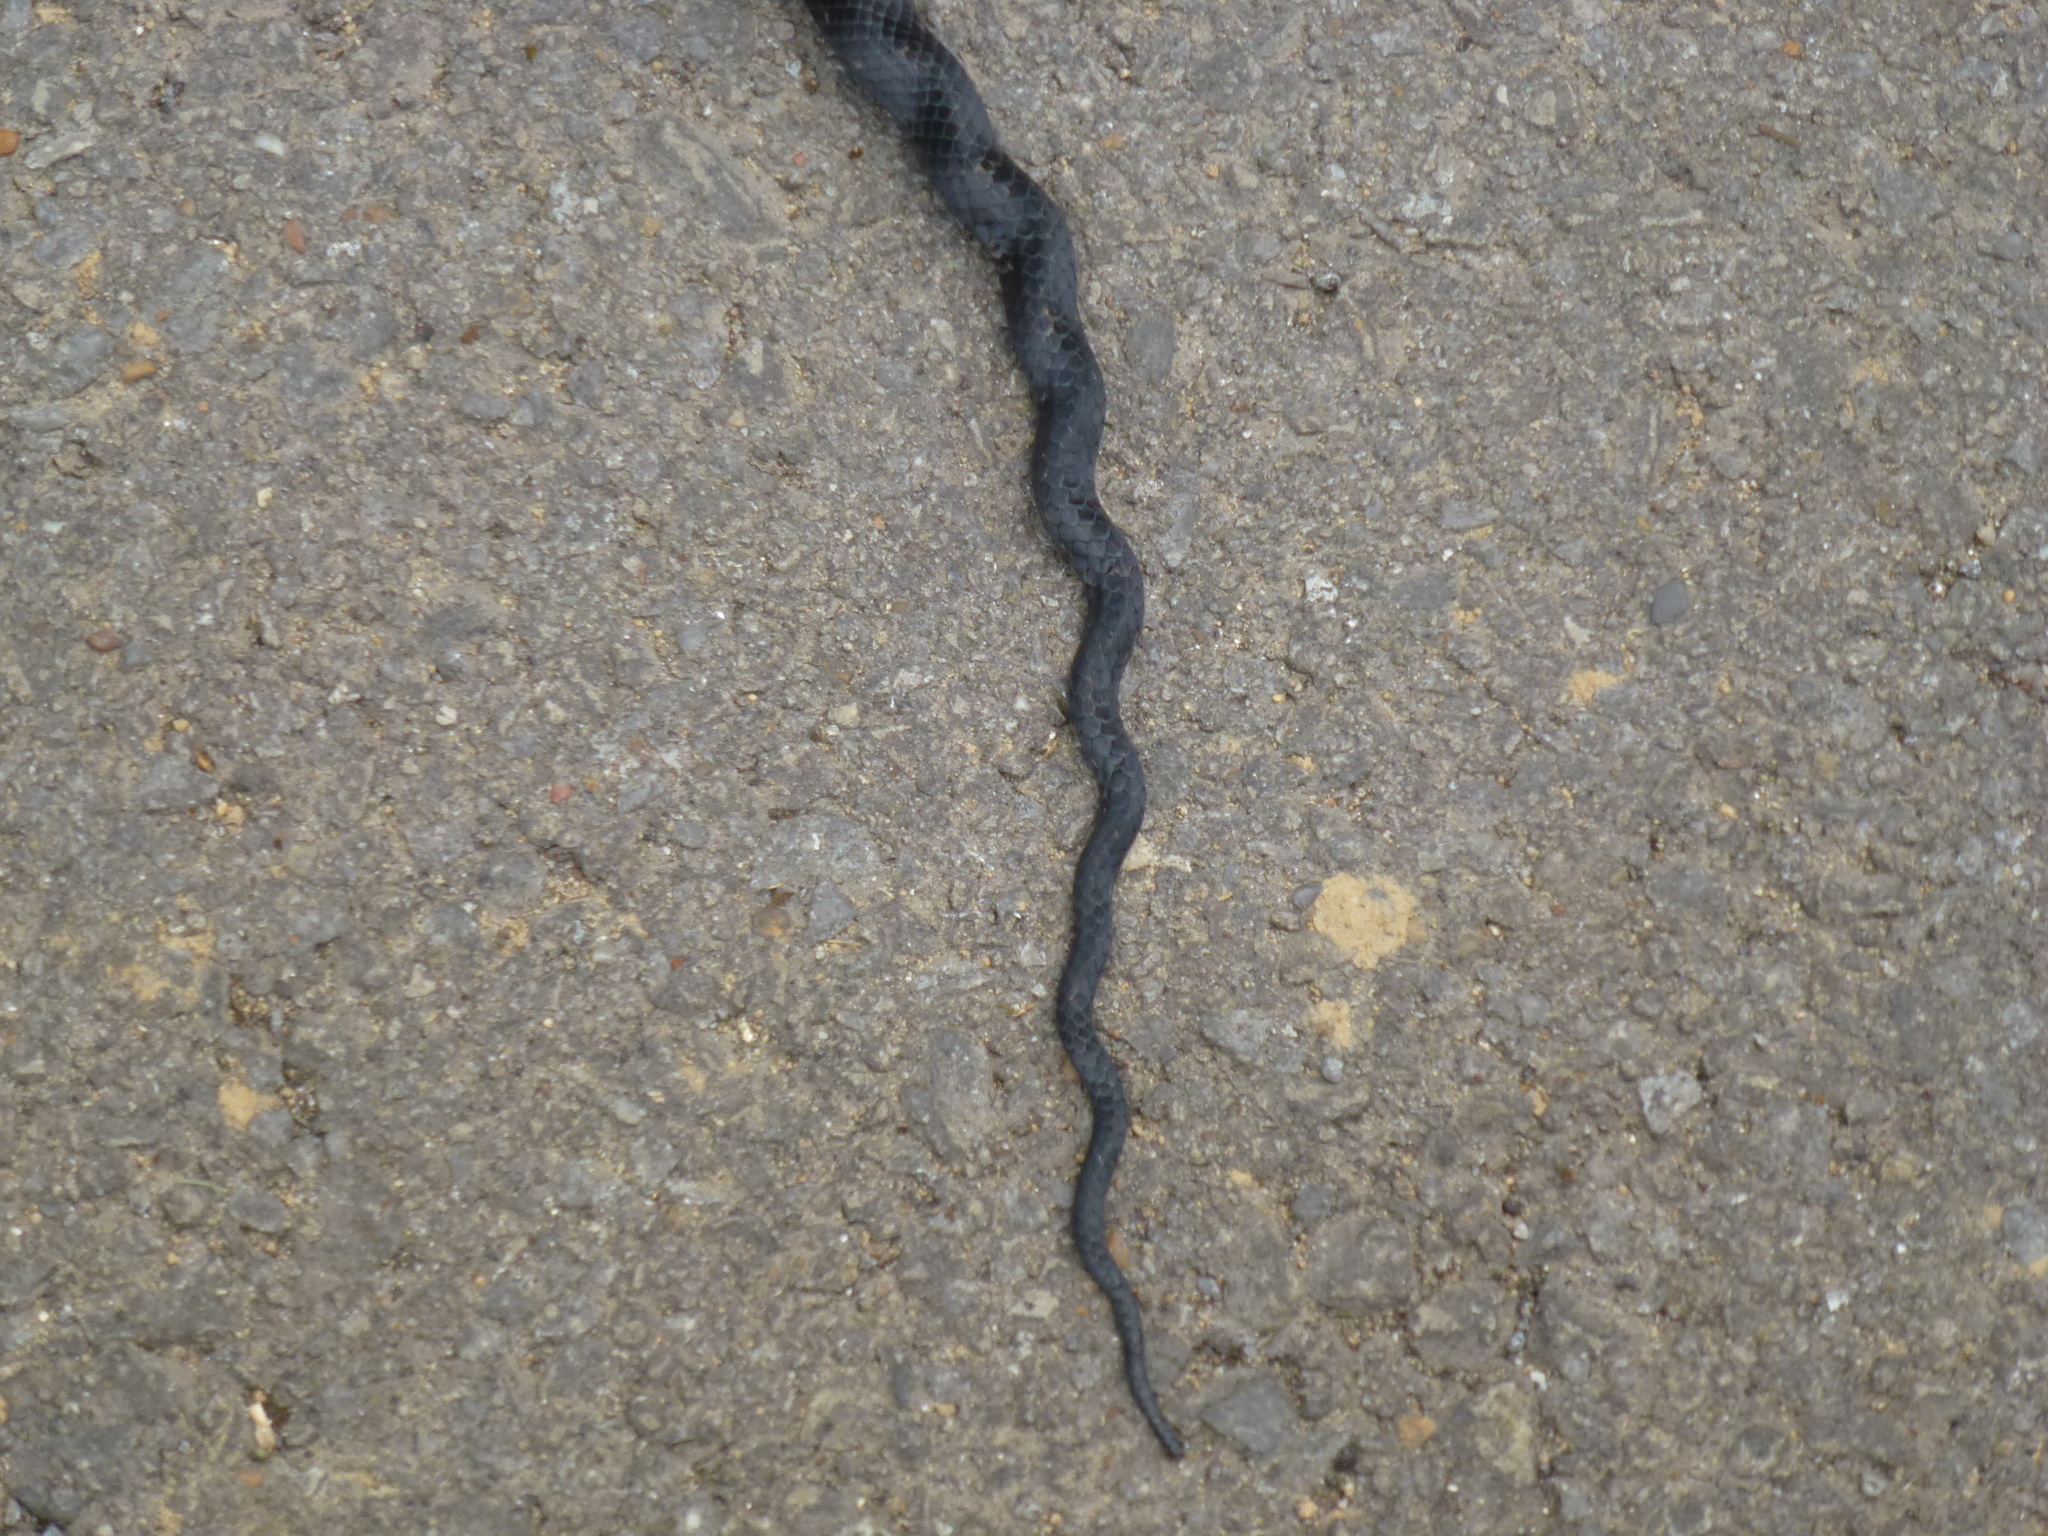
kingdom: Animalia
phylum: Chordata
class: Squamata
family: Colubridae
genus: Pantherophis
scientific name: Pantherophis spiloides
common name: Gray rat snake
